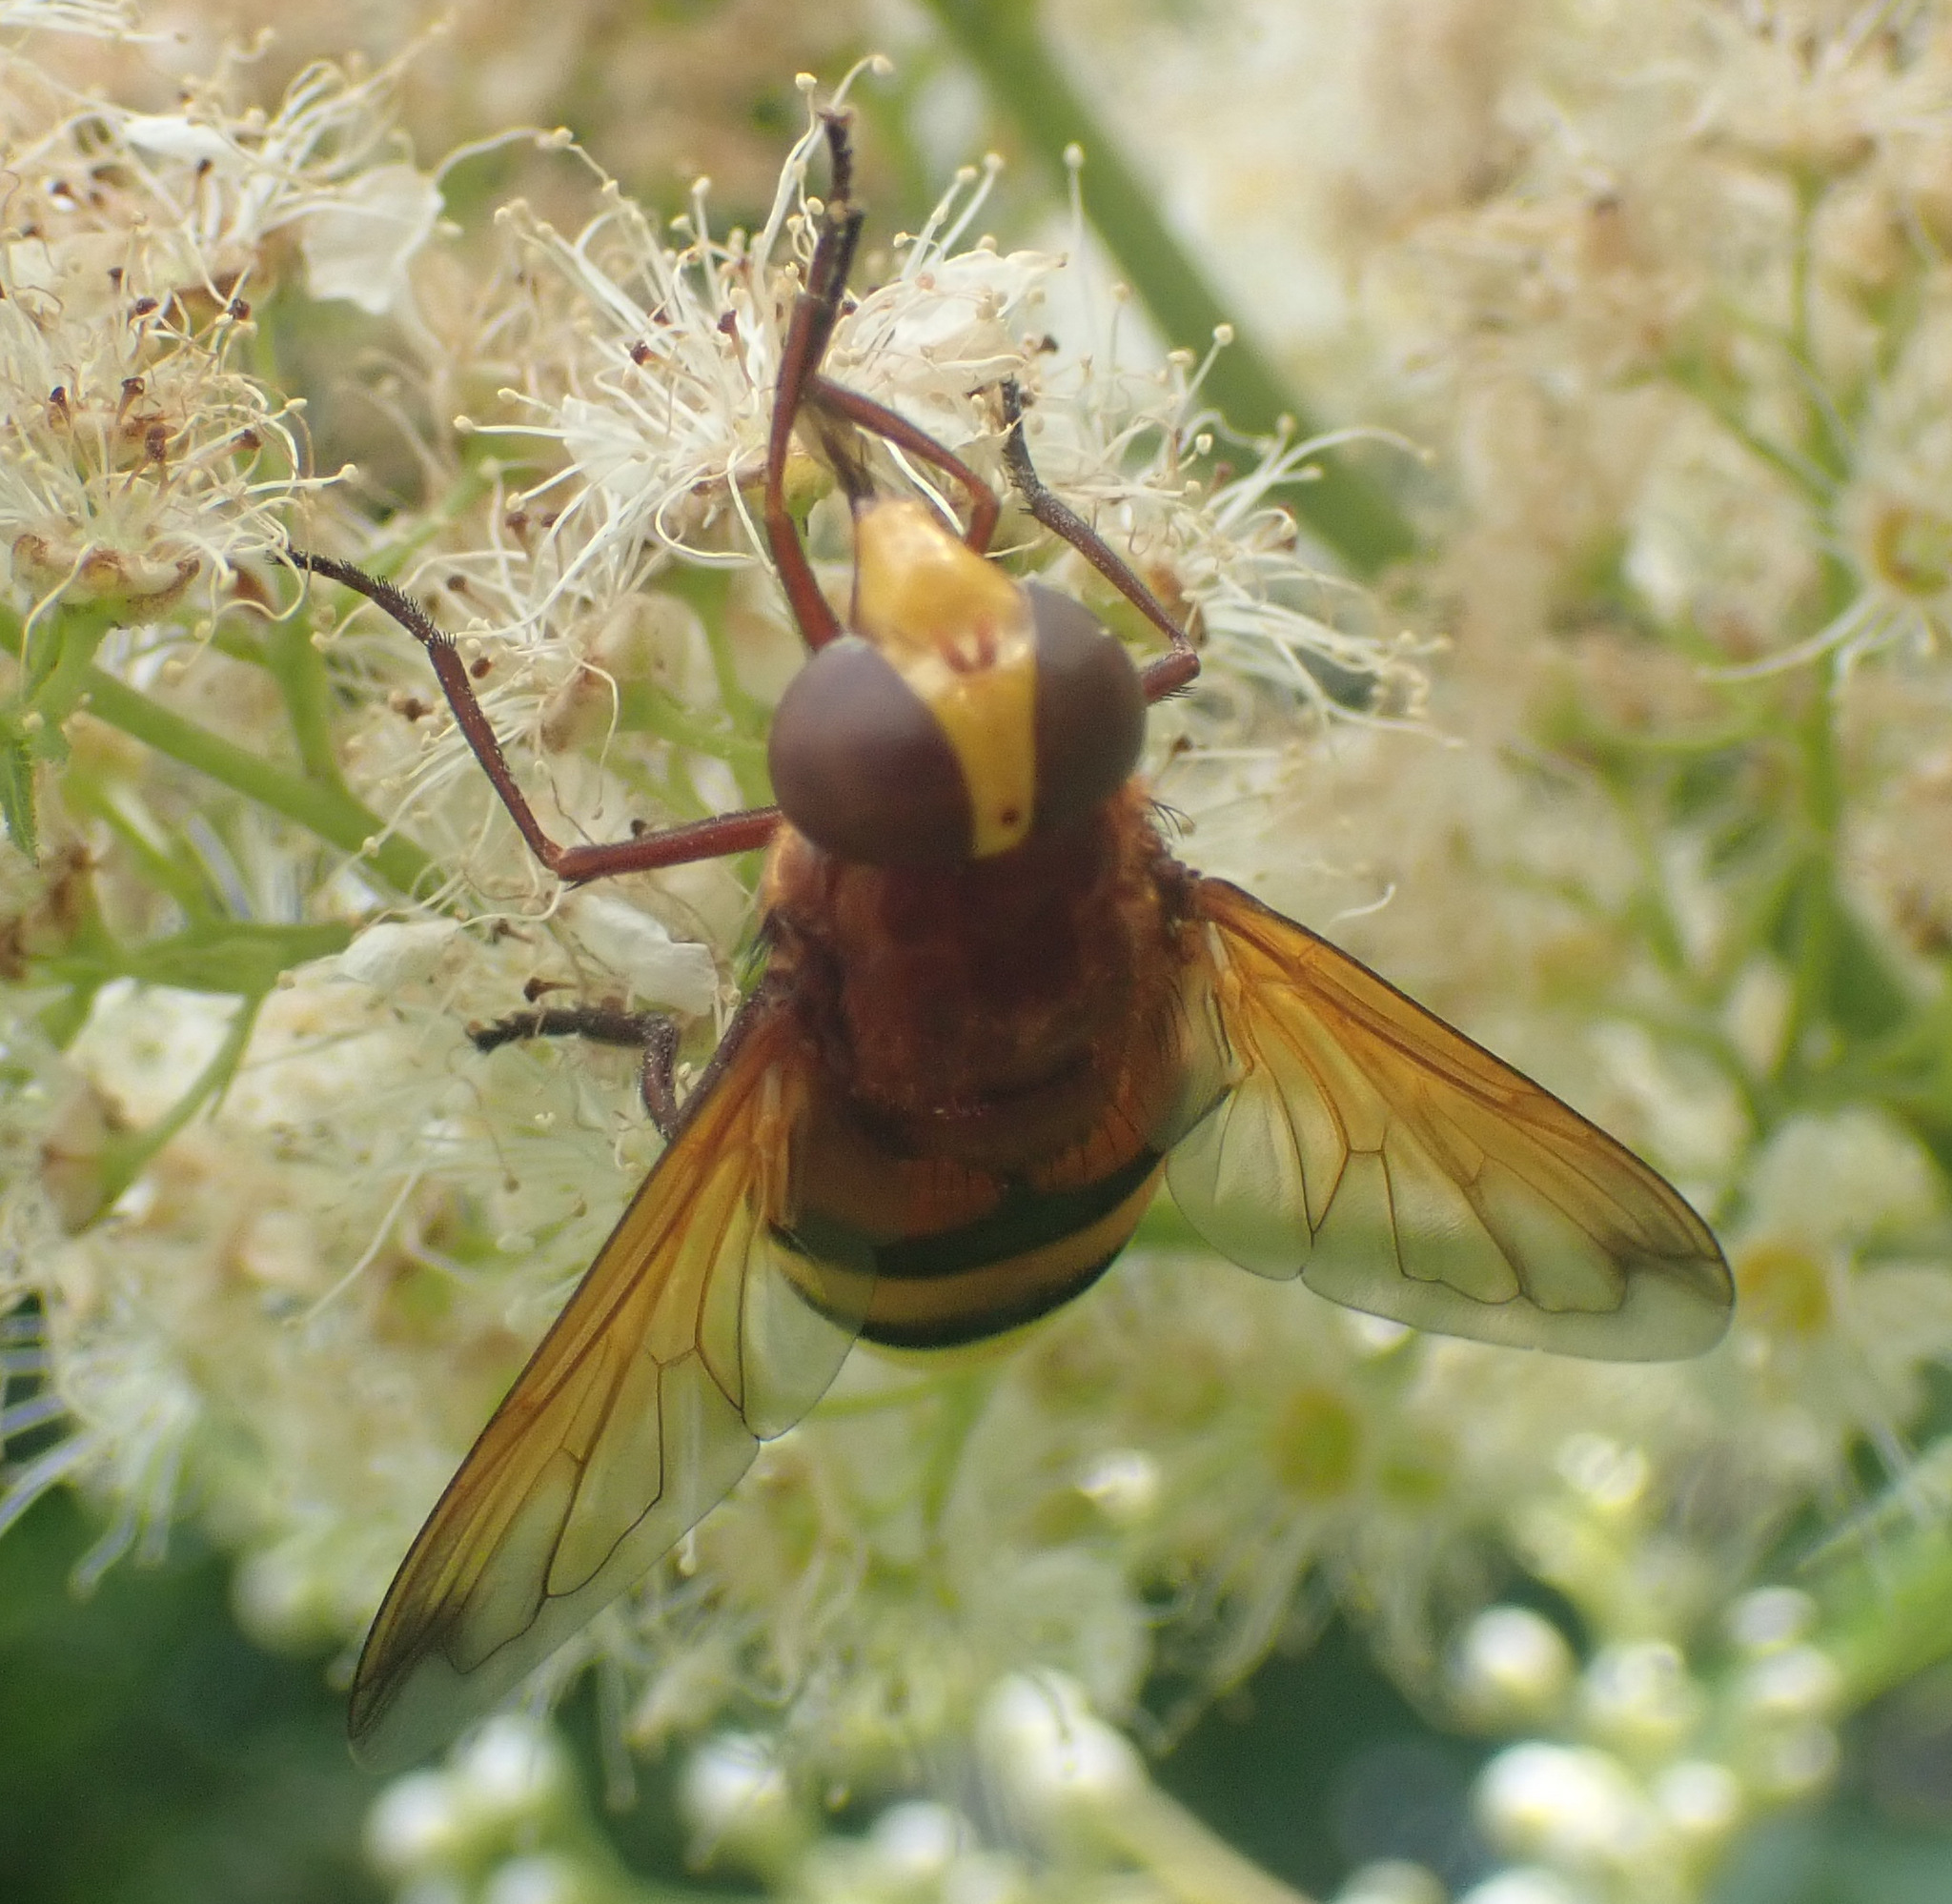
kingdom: Animalia
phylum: Arthropoda
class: Insecta
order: Diptera
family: Syrphidae
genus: Volucella
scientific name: Volucella zonaria
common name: Hornet hoverfly
